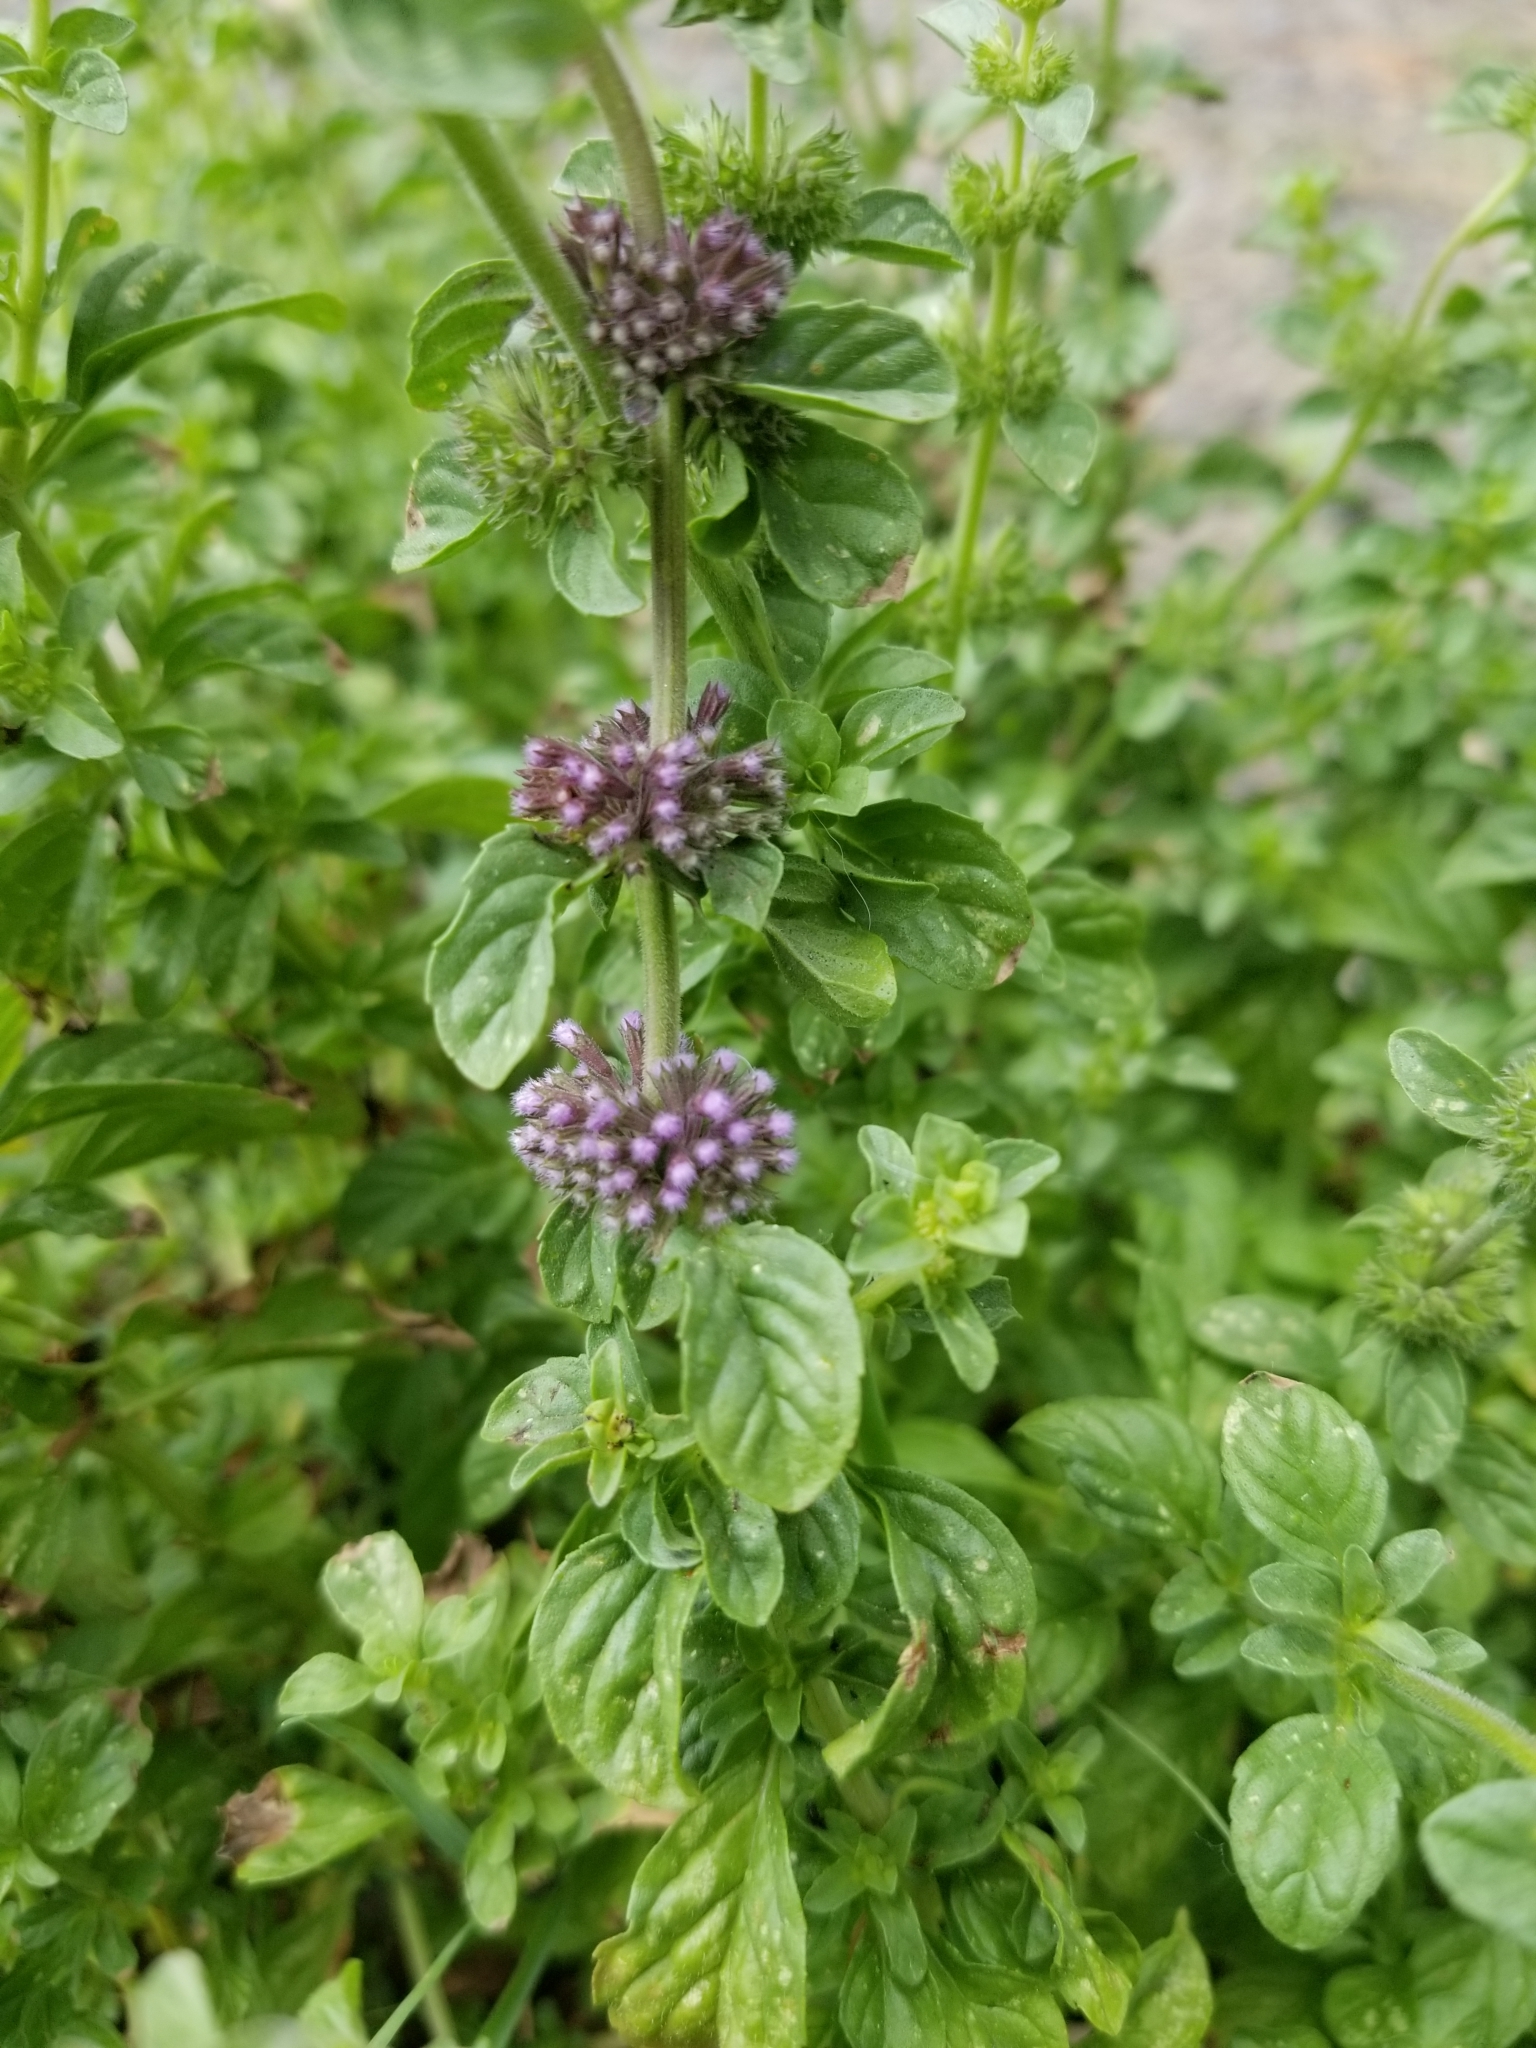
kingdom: Plantae
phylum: Tracheophyta
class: Magnoliopsida
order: Lamiales
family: Lamiaceae
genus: Mentha
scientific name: Mentha pulegium
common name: Pennyroyal
